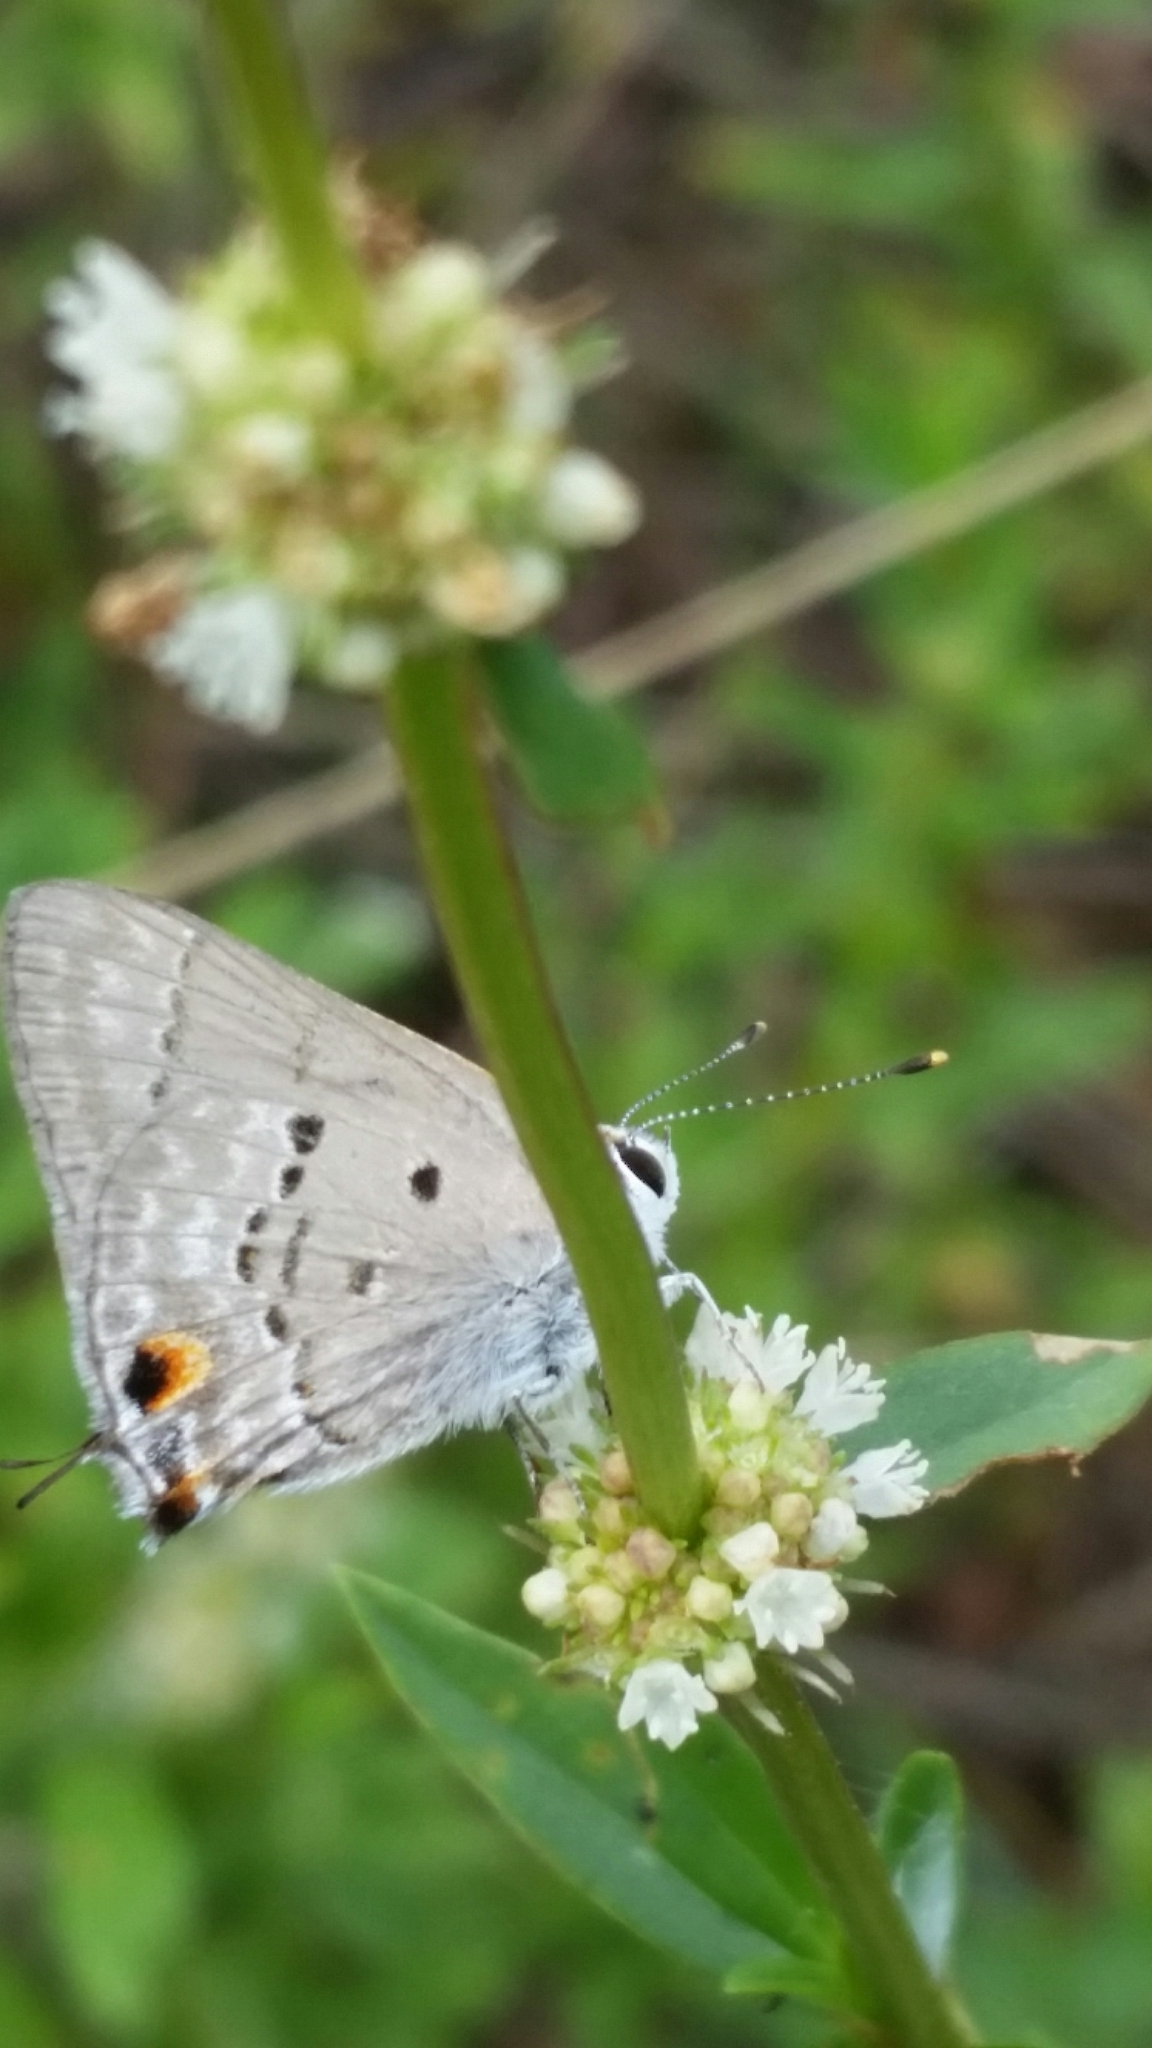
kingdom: Animalia
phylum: Arthropoda
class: Insecta
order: Lepidoptera
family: Lycaenidae
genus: Callicista
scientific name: Callicista columella
